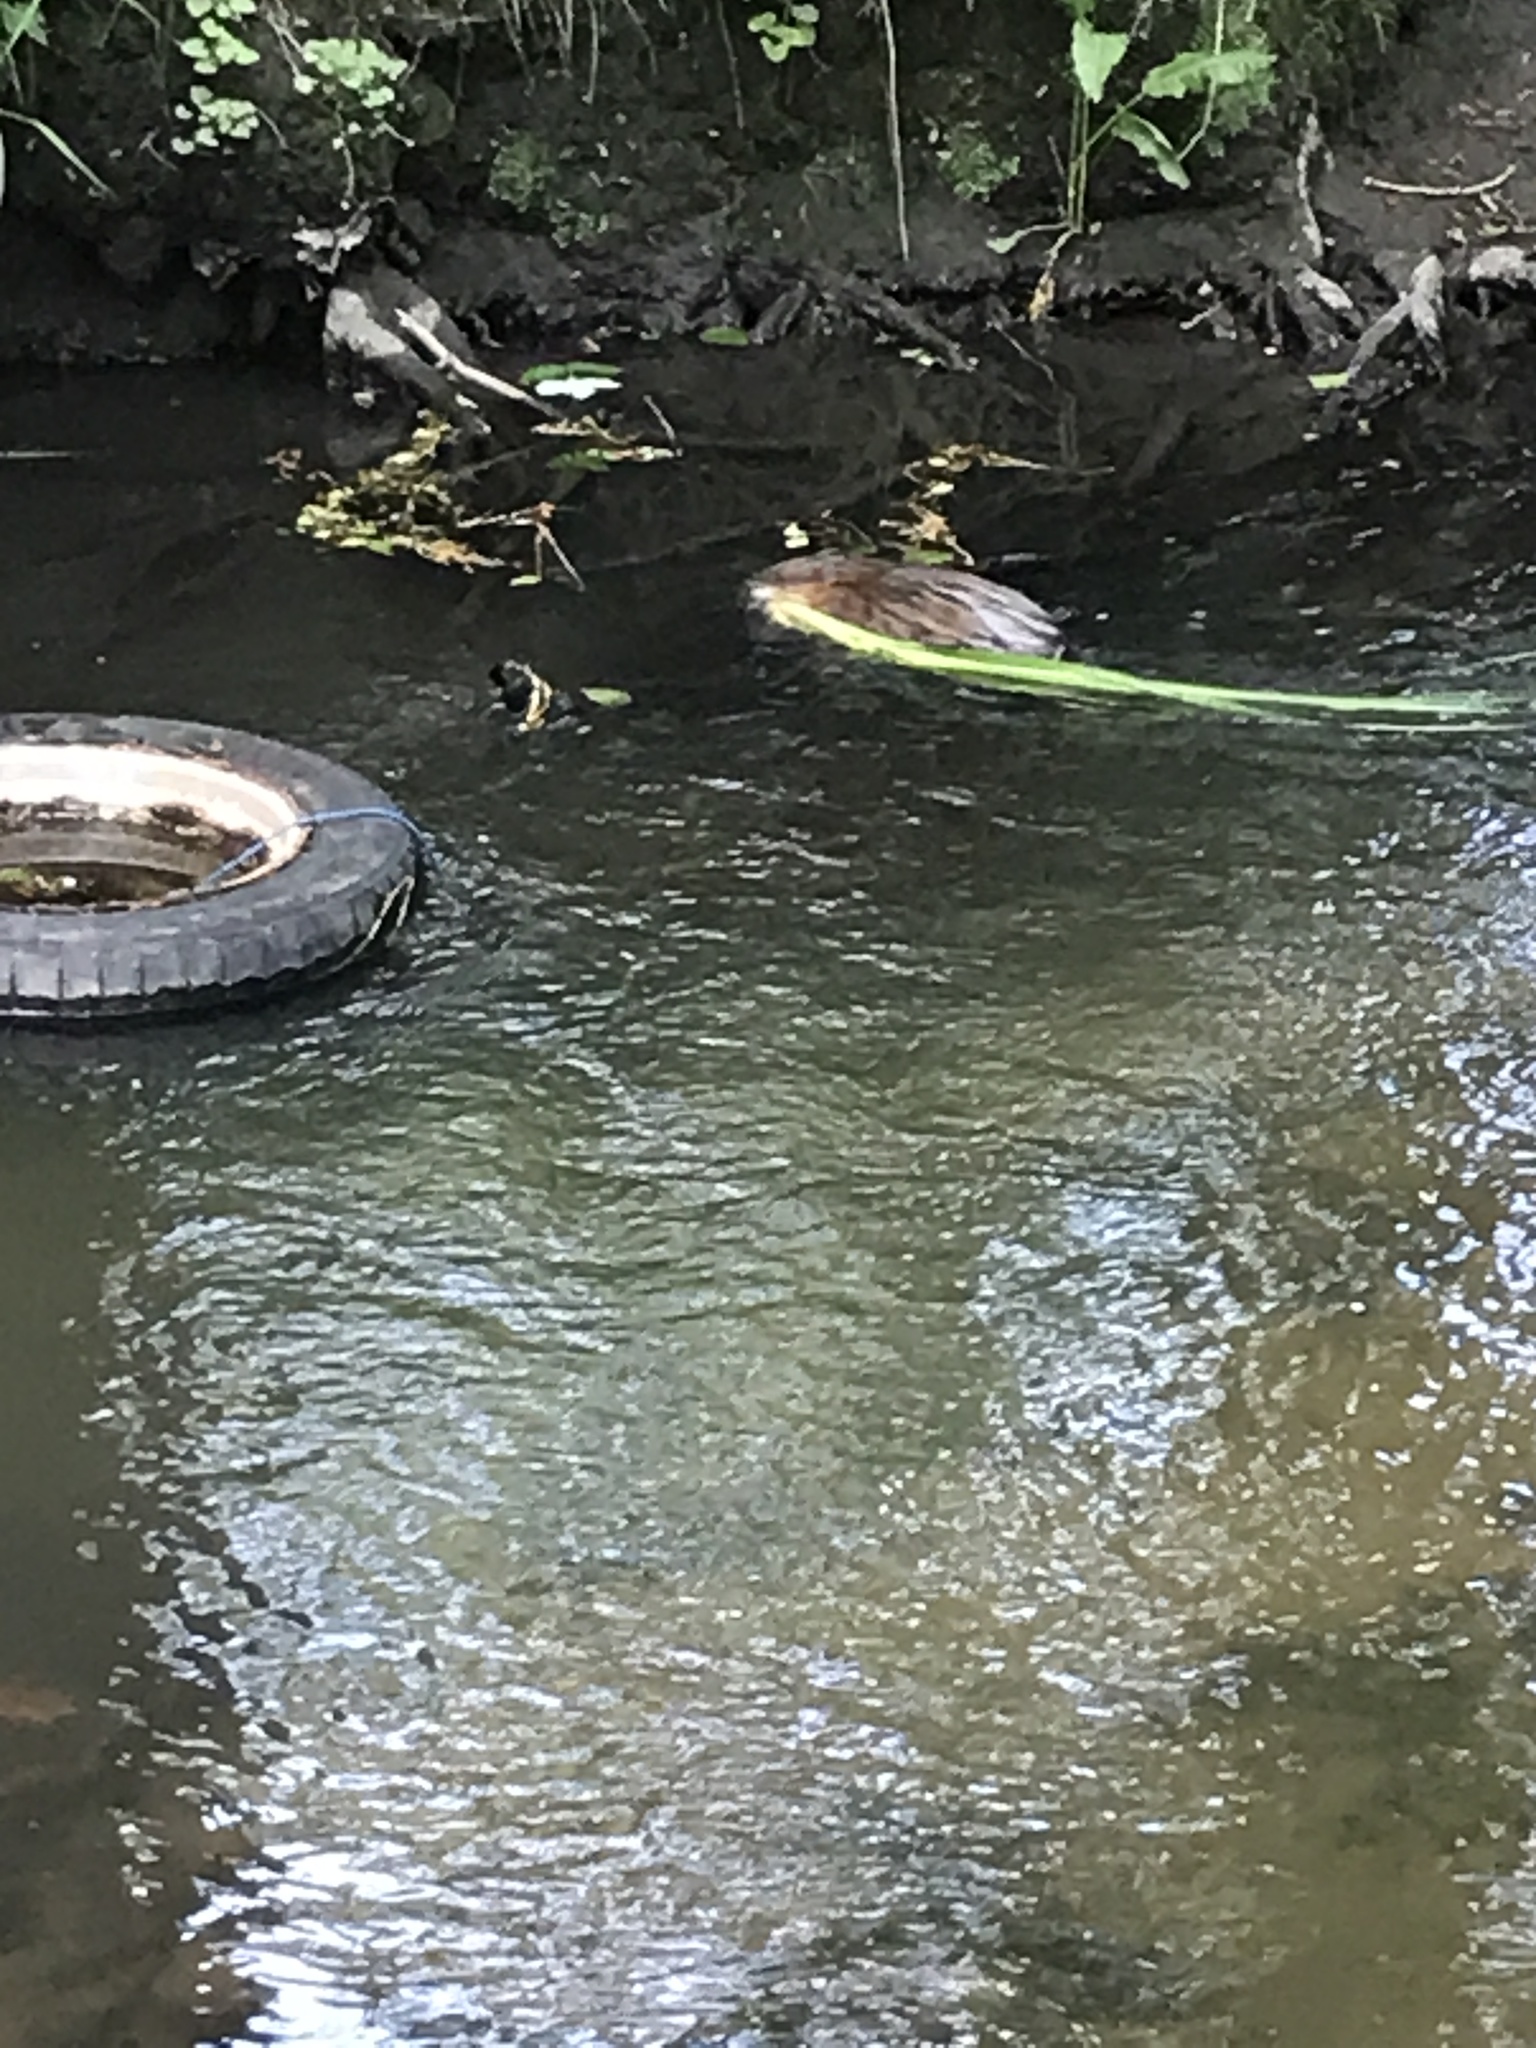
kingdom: Animalia
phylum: Chordata
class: Mammalia
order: Rodentia
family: Cricetidae
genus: Ondatra
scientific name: Ondatra zibethicus
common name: Muskrat
